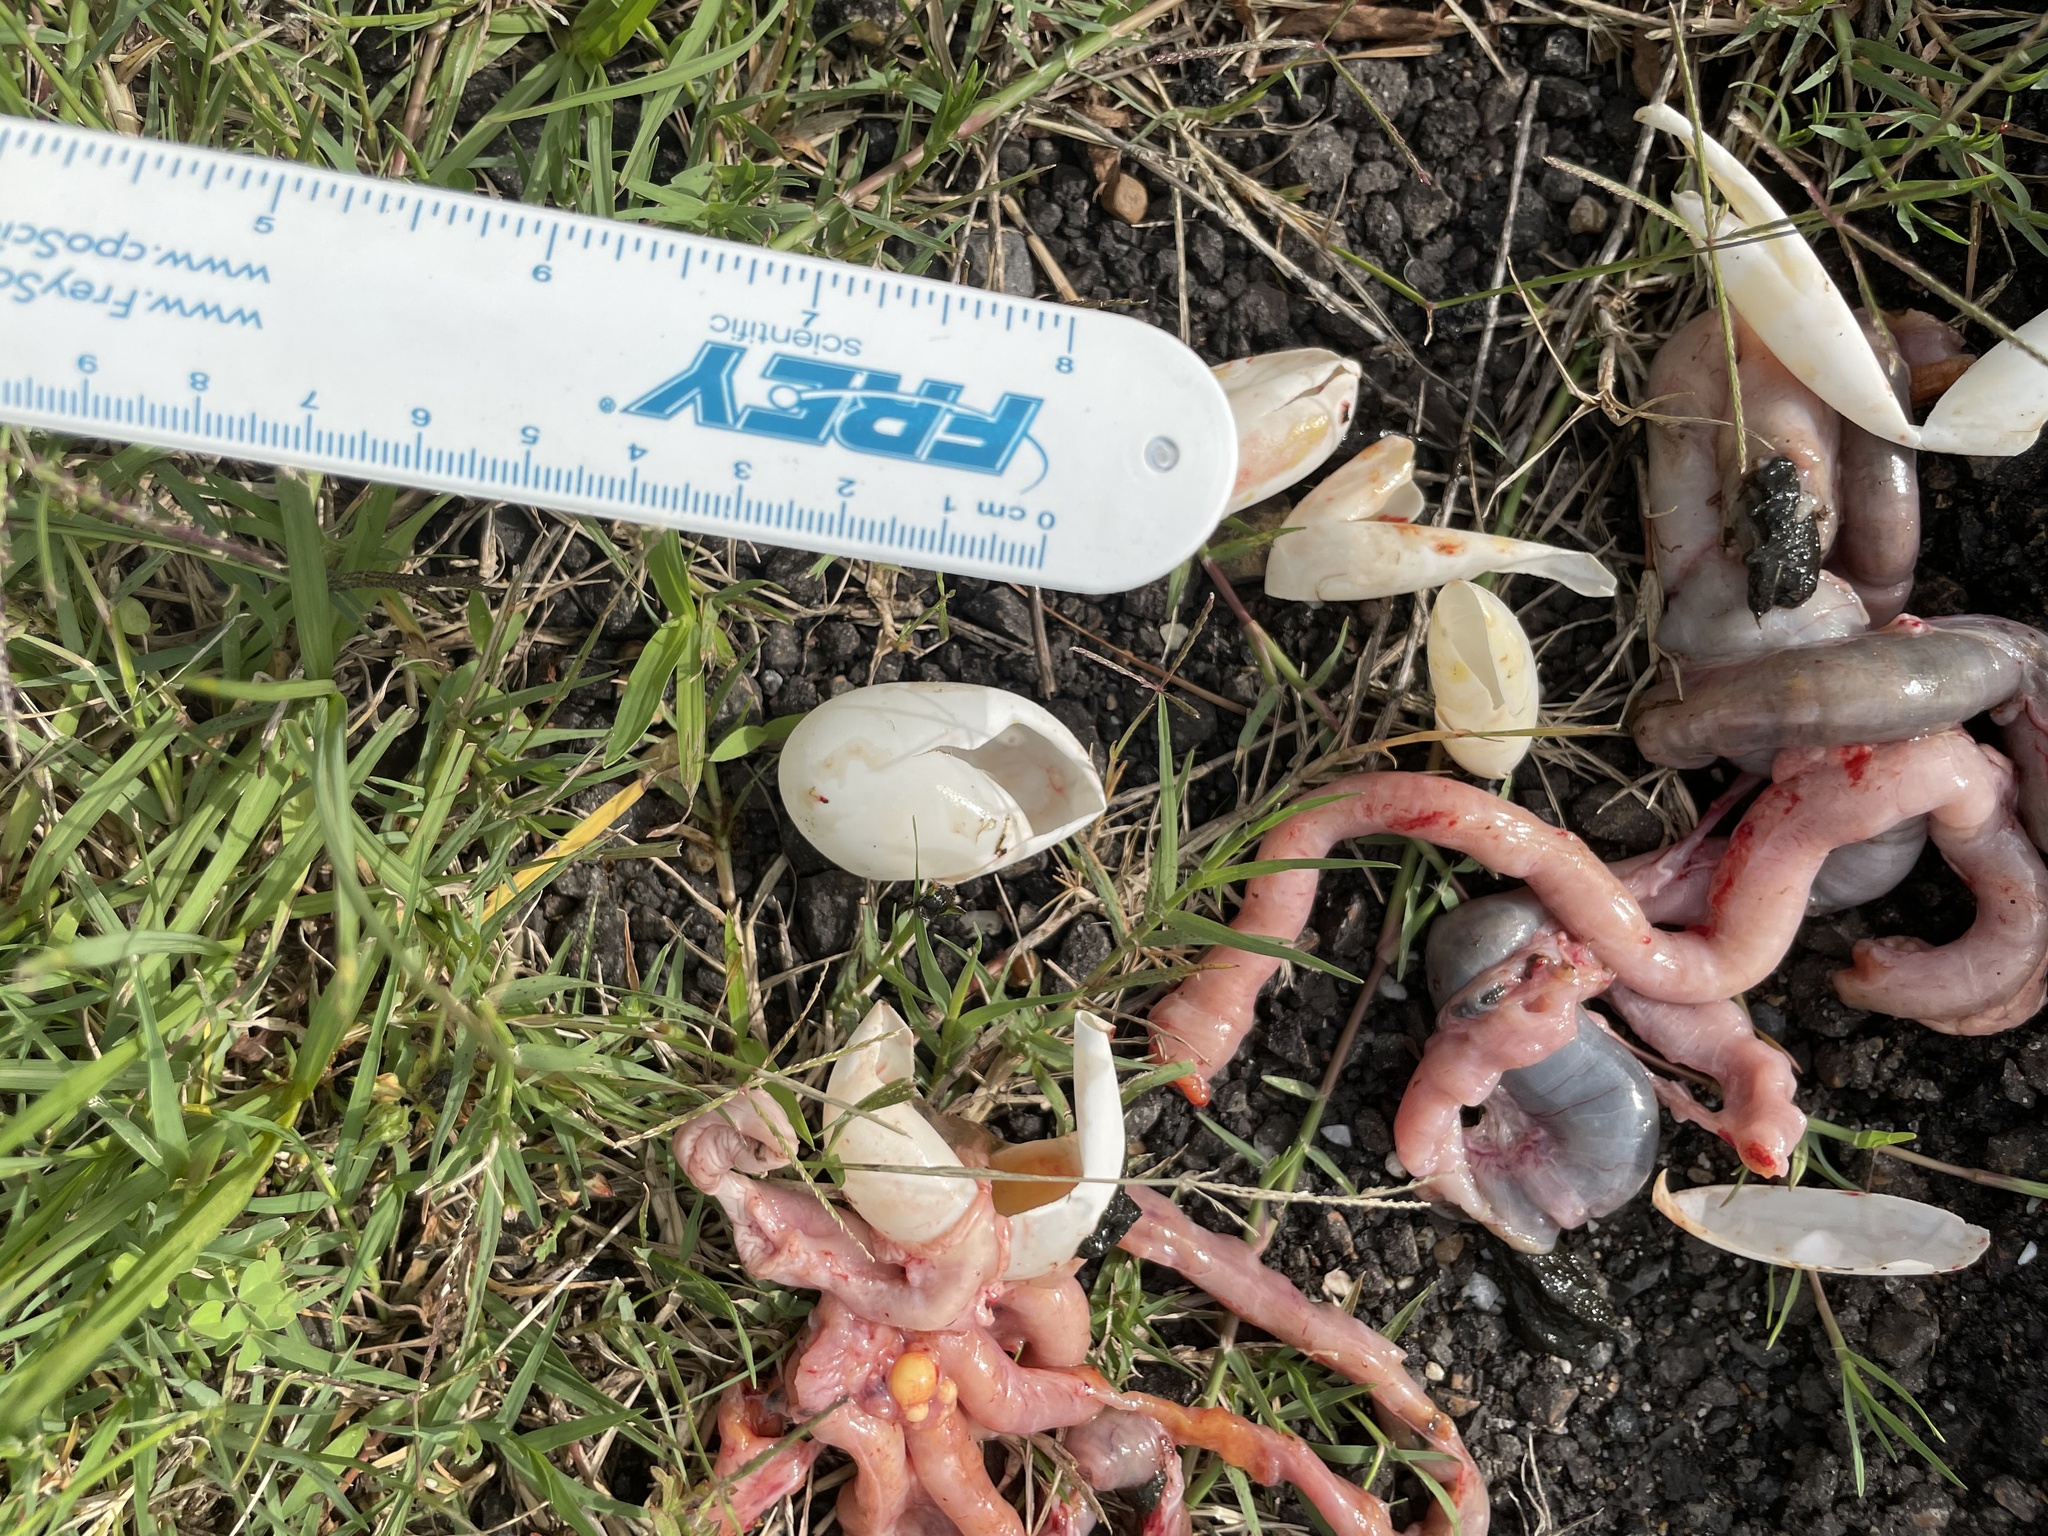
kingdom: Animalia
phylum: Chordata
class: Testudines
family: Emydidae
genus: Trachemys
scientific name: Trachemys scripta
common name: Slider
